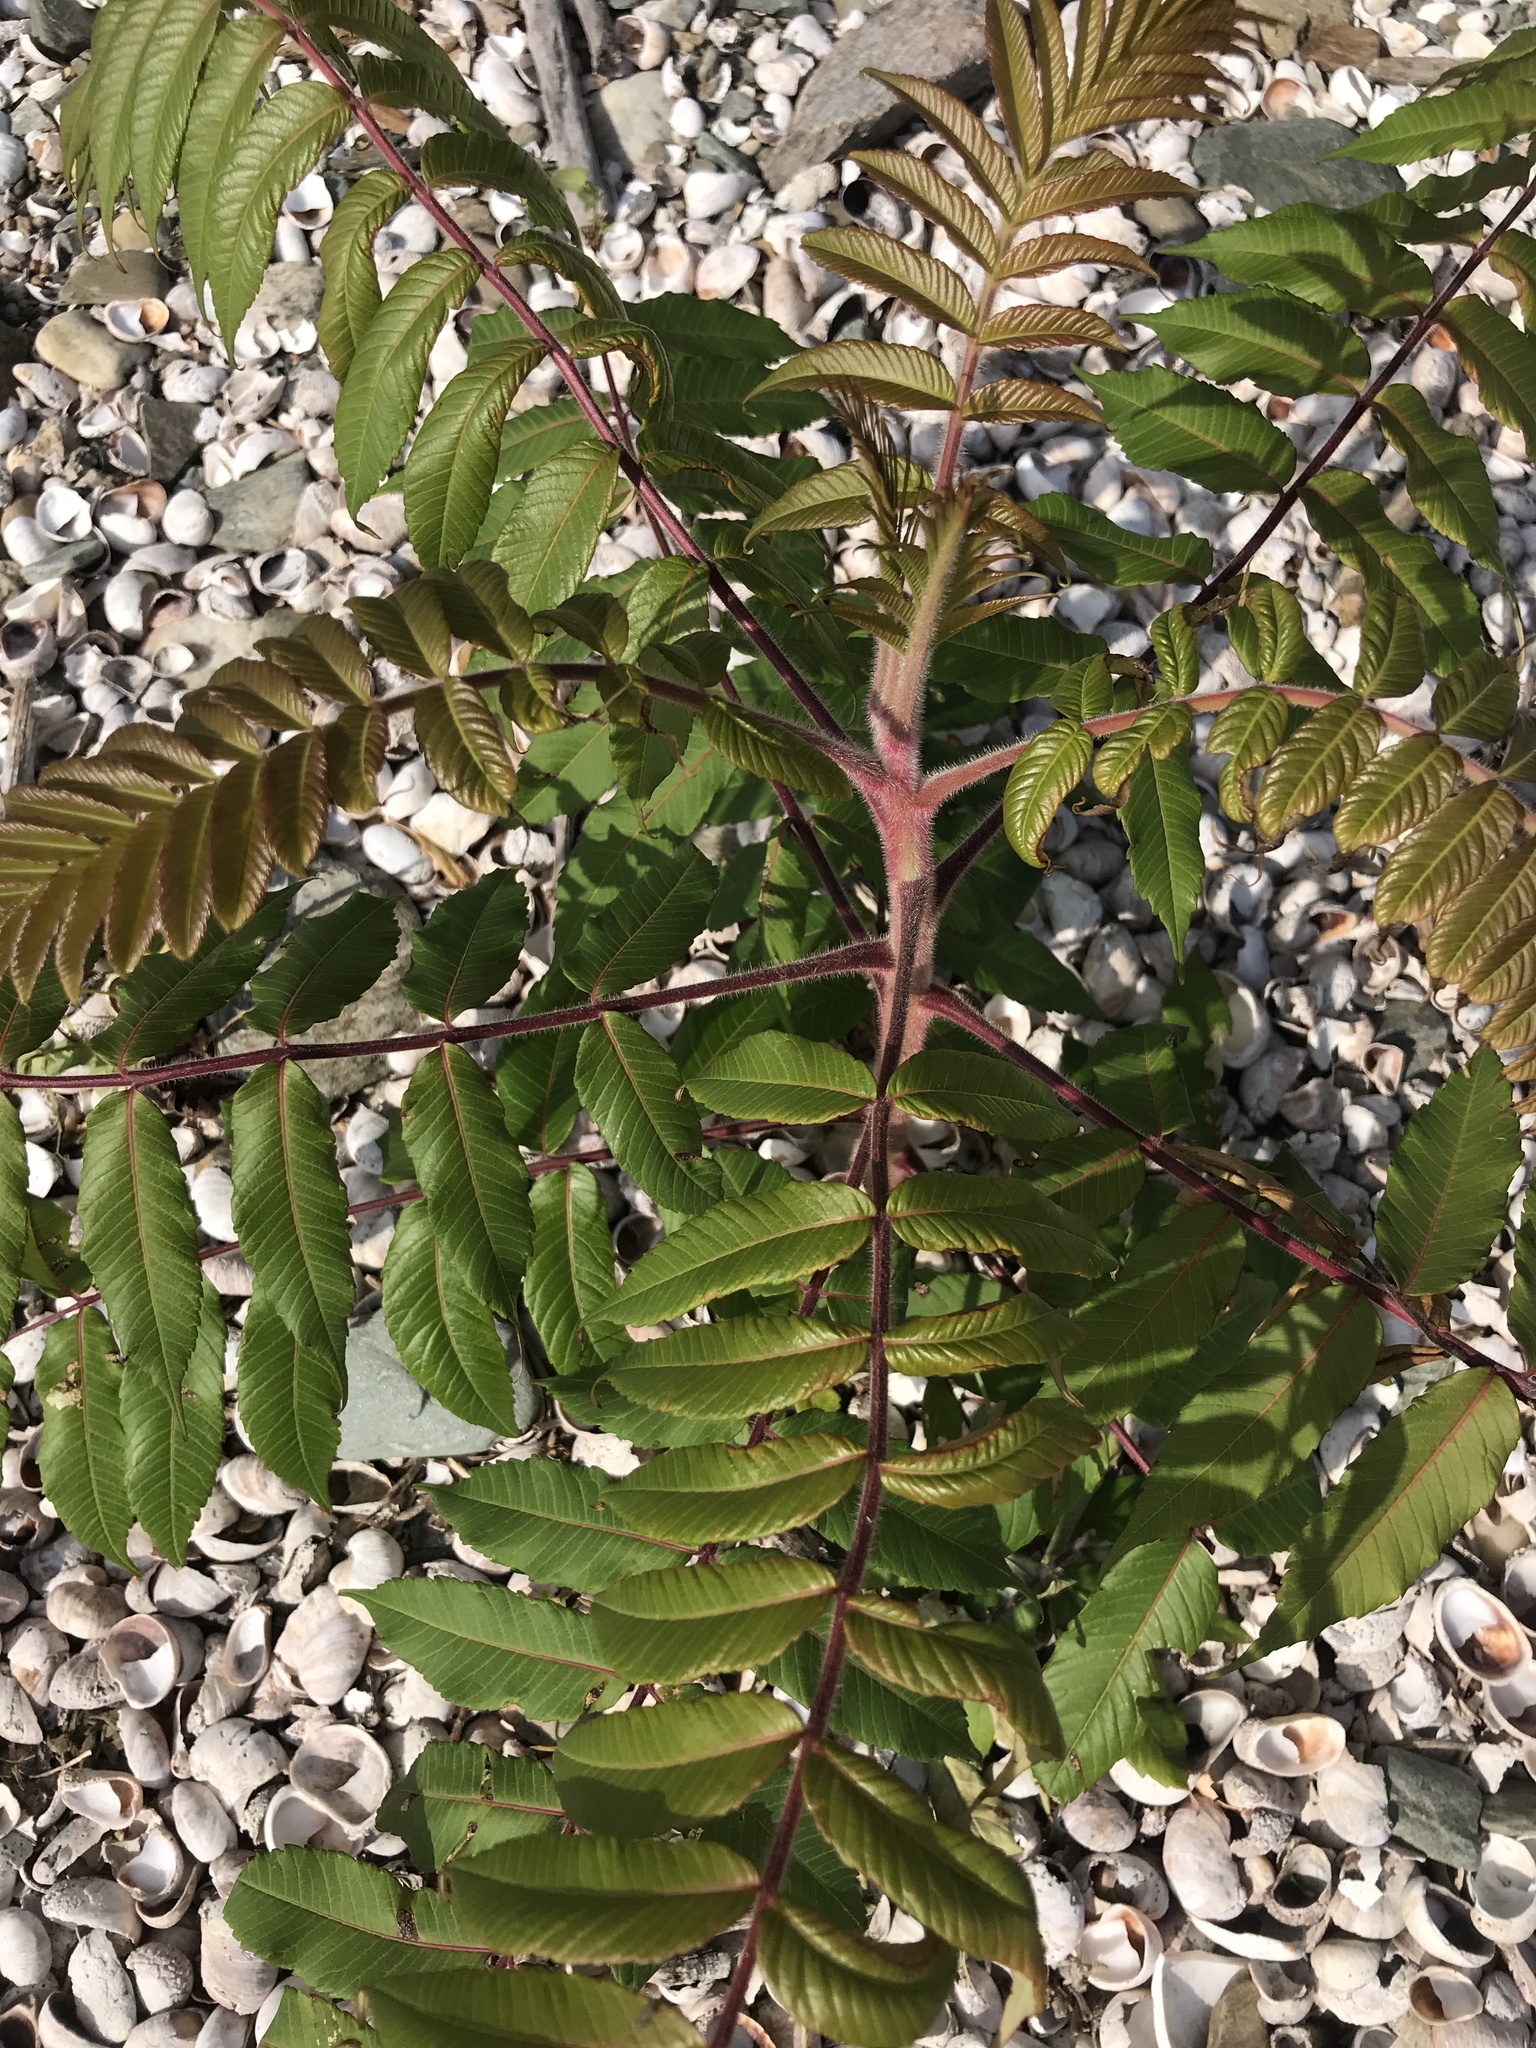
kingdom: Plantae
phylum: Tracheophyta
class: Magnoliopsida
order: Sapindales
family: Anacardiaceae
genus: Rhus
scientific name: Rhus typhina
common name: Staghorn sumac
